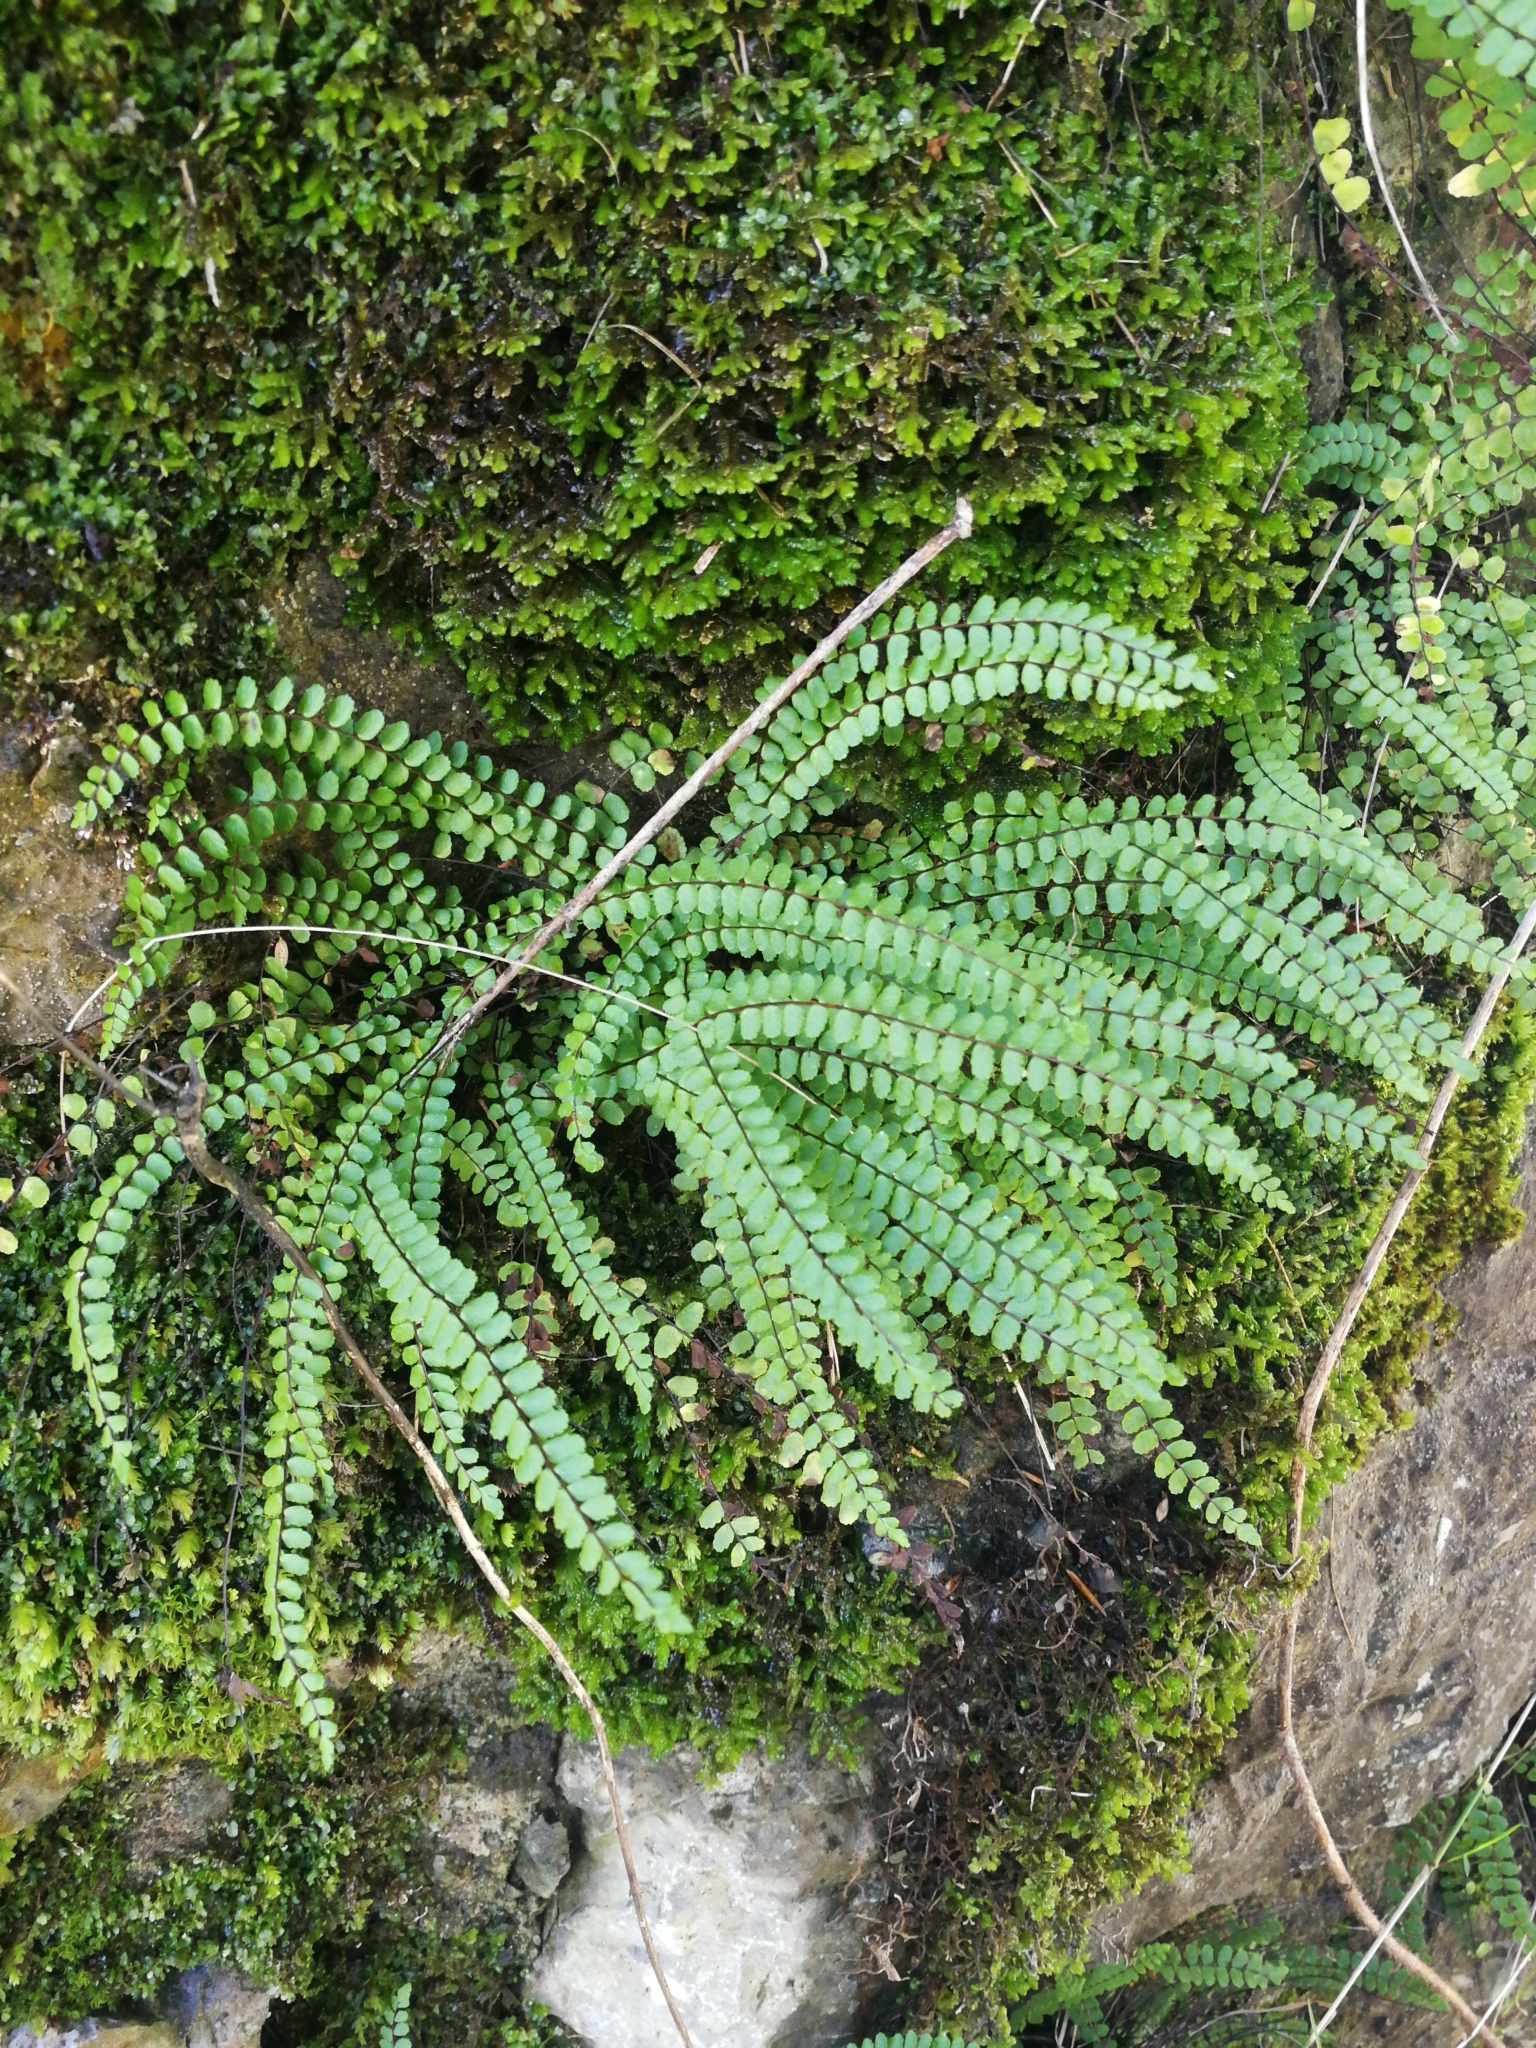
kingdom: Plantae
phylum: Tracheophyta
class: Polypodiopsida
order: Polypodiales
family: Aspleniaceae
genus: Asplenium
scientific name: Asplenium trichomanes
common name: Maidenhair spleenwort
